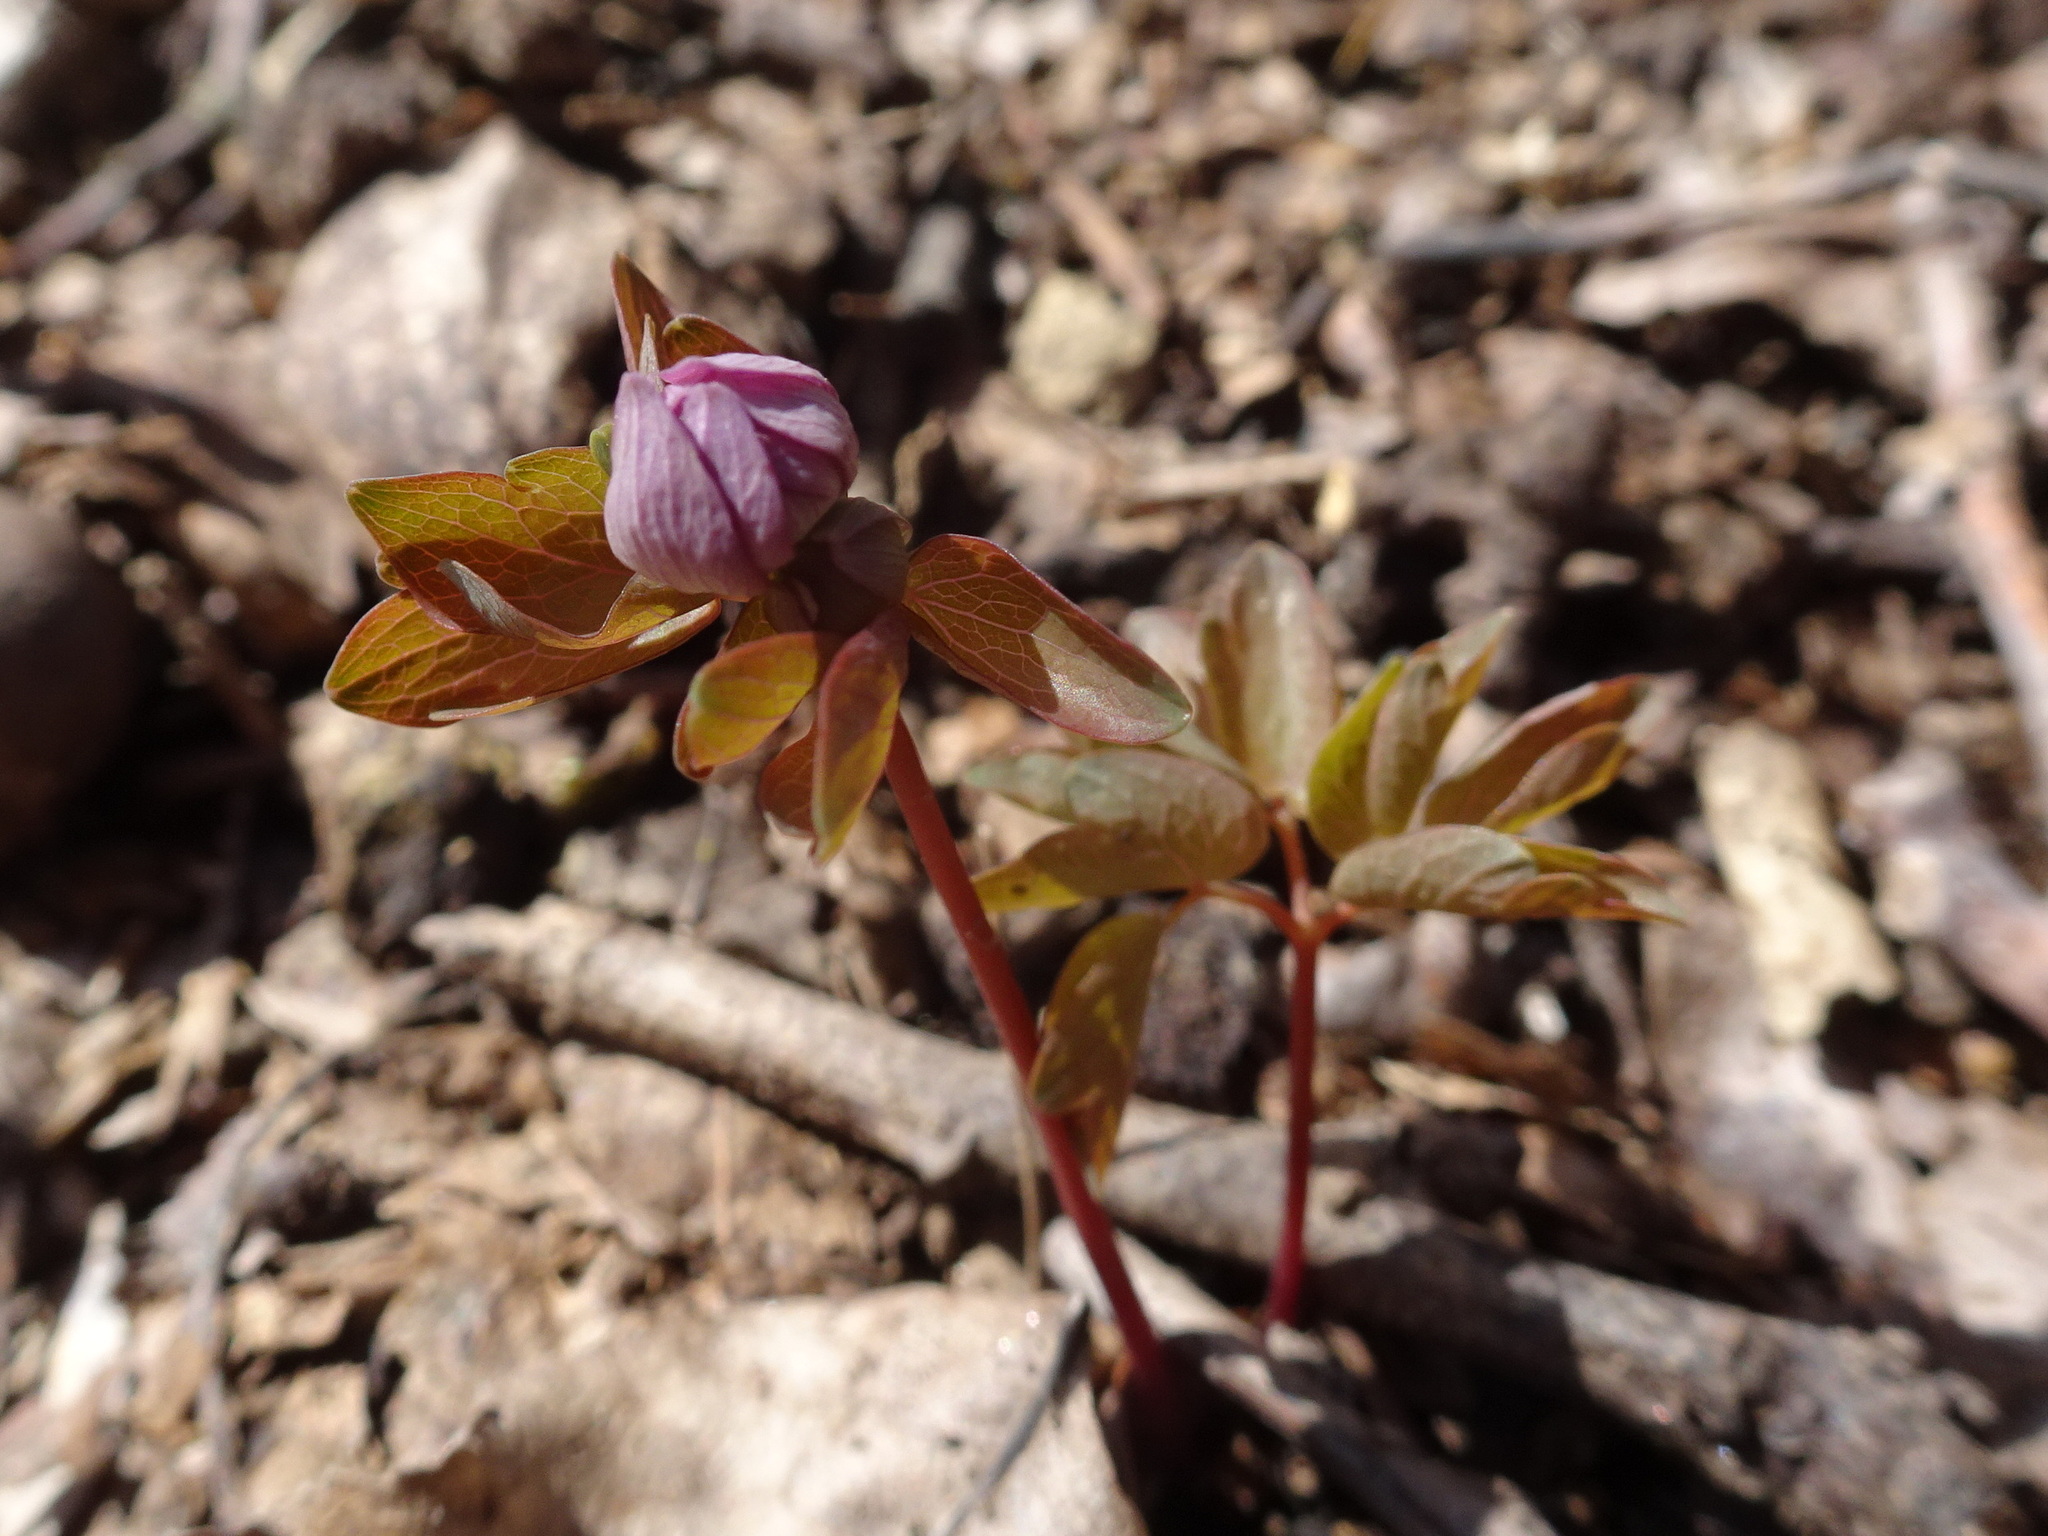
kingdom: Plantae
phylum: Tracheophyta
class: Magnoliopsida
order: Ranunculales
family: Ranunculaceae
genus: Thalictrum
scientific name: Thalictrum thalictroides
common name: Rue-anemone
